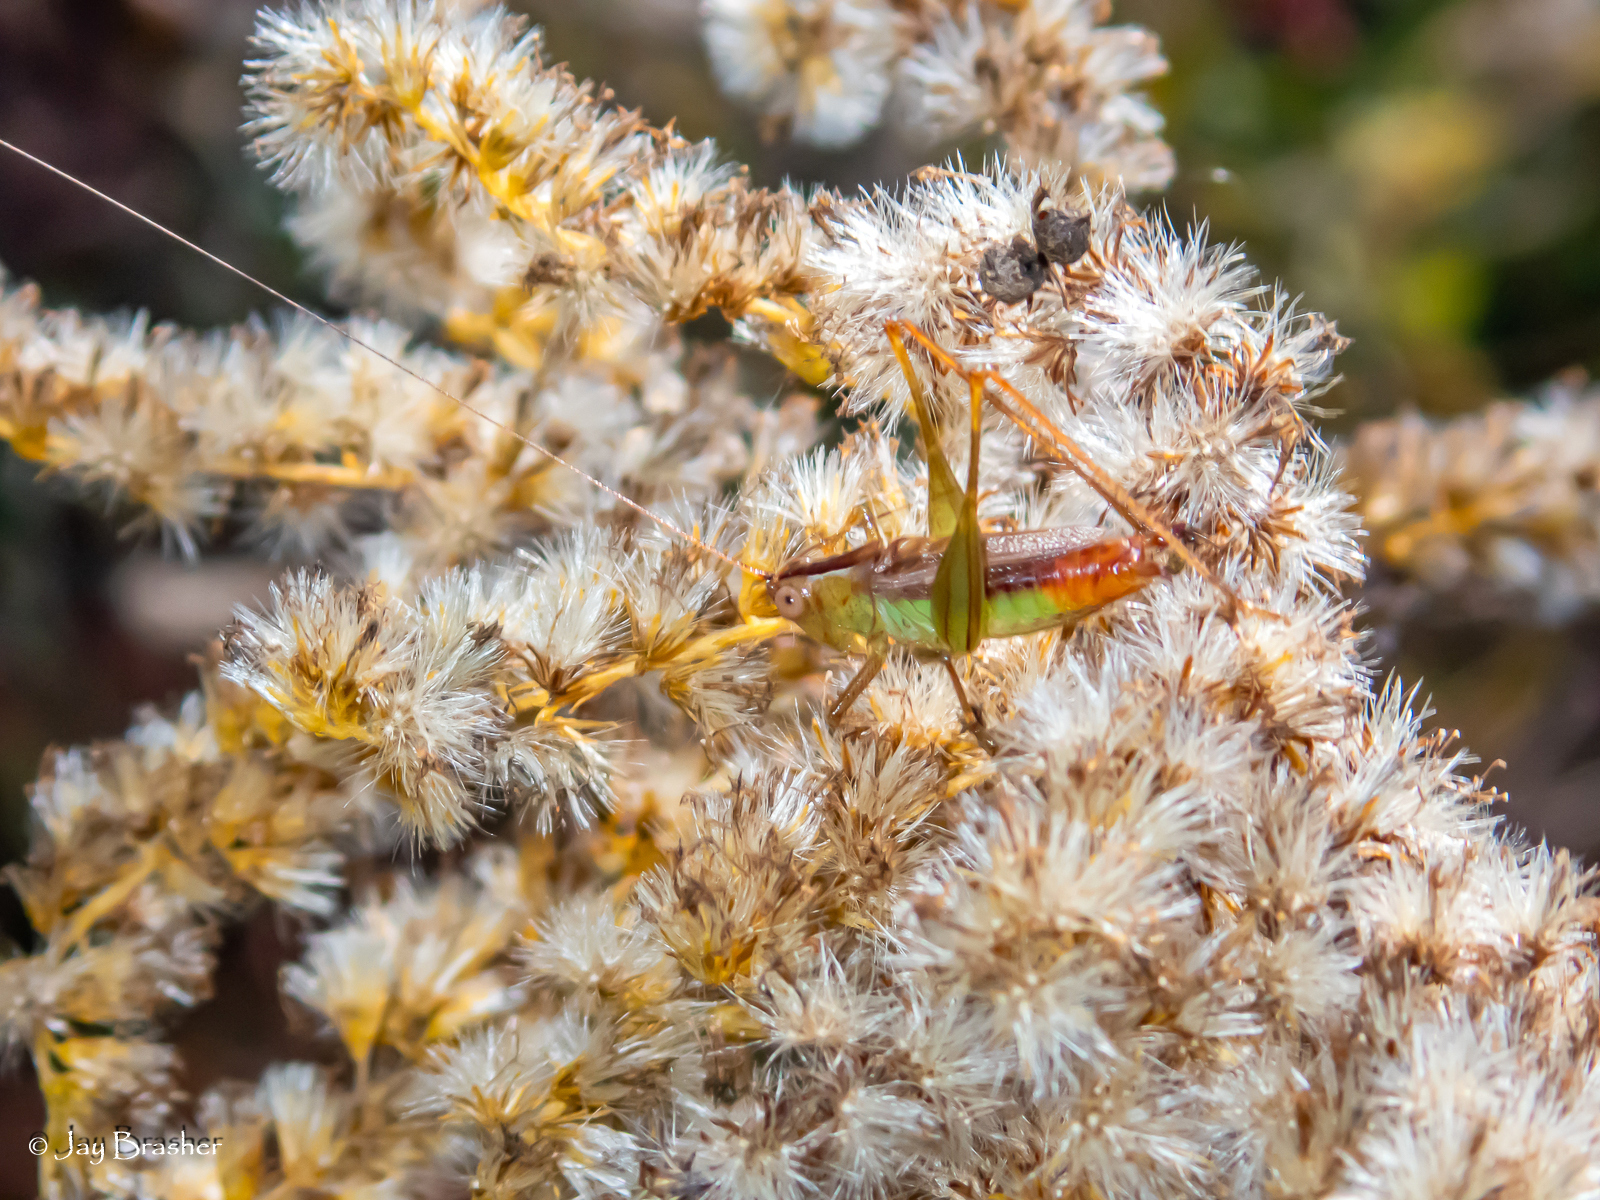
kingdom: Animalia
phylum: Arthropoda
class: Insecta
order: Orthoptera
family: Tettigoniidae
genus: Conocephalus
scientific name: Conocephalus brevipennis
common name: Short-winged meadow katydid
